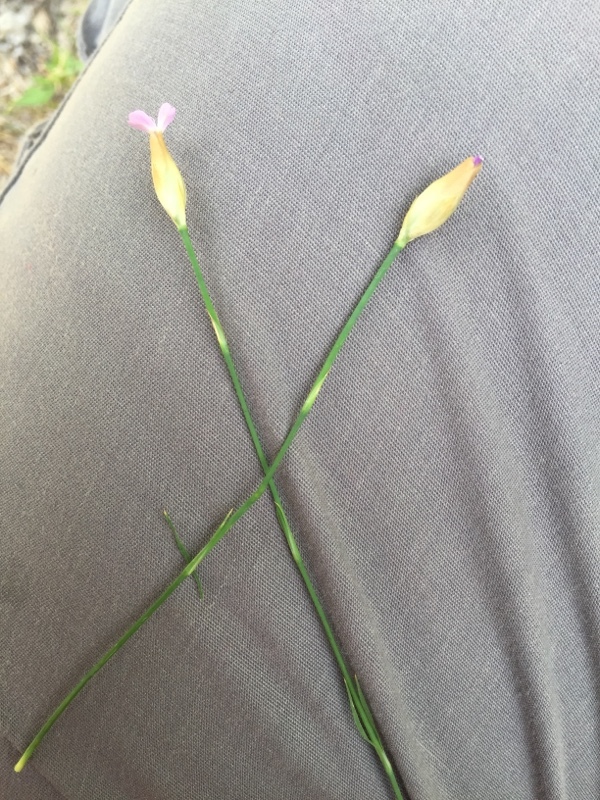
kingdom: Plantae
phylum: Tracheophyta
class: Magnoliopsida
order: Caryophyllales
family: Caryophyllaceae
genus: Petrorhagia
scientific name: Petrorhagia prolifera
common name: Proliferous pink
